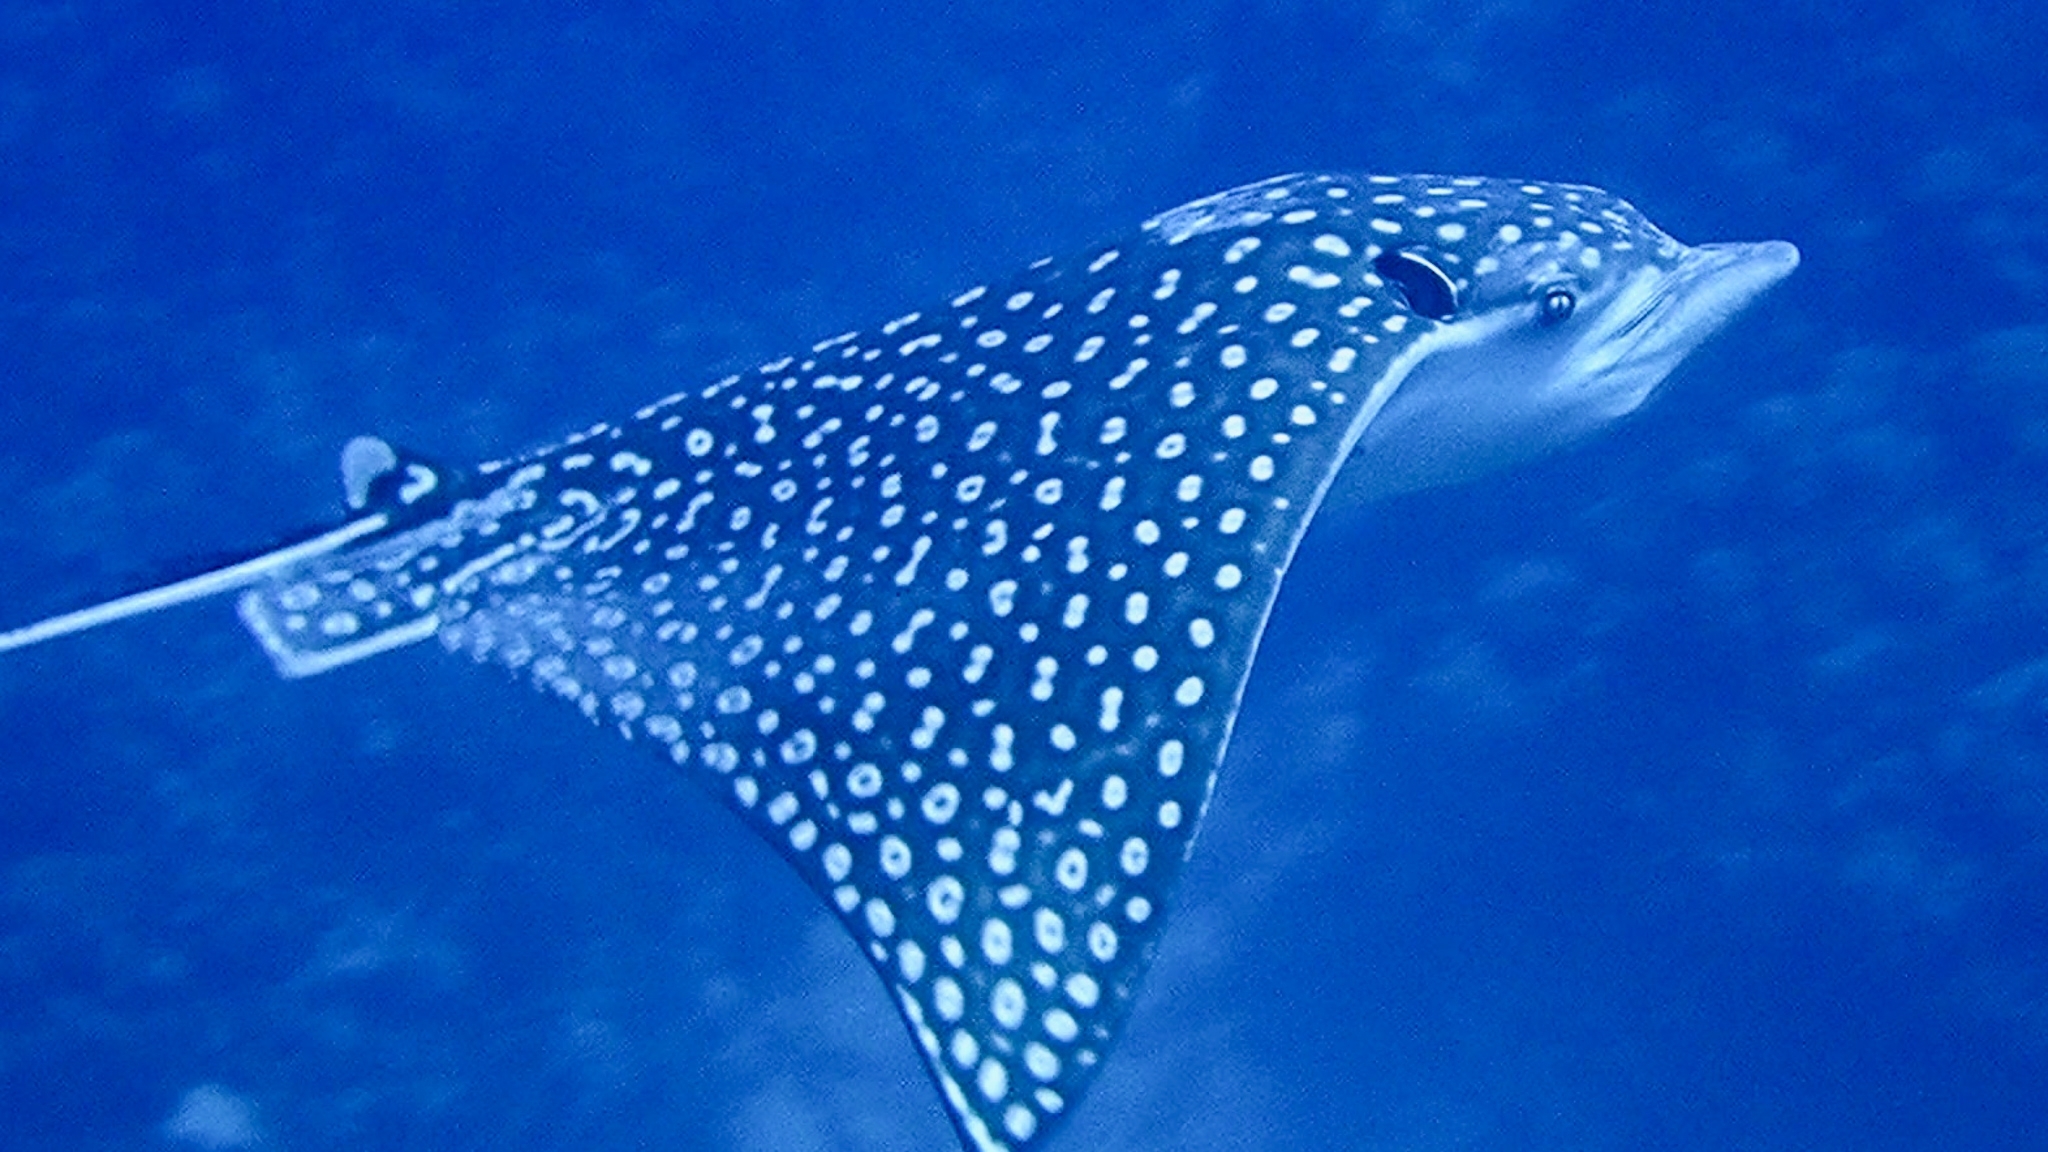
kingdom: Animalia
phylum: Chordata
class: Elasmobranchii
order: Myliobatiformes
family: Myliobatidae
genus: Aetobatus
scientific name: Aetobatus narinari
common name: Spotted eagle ray
